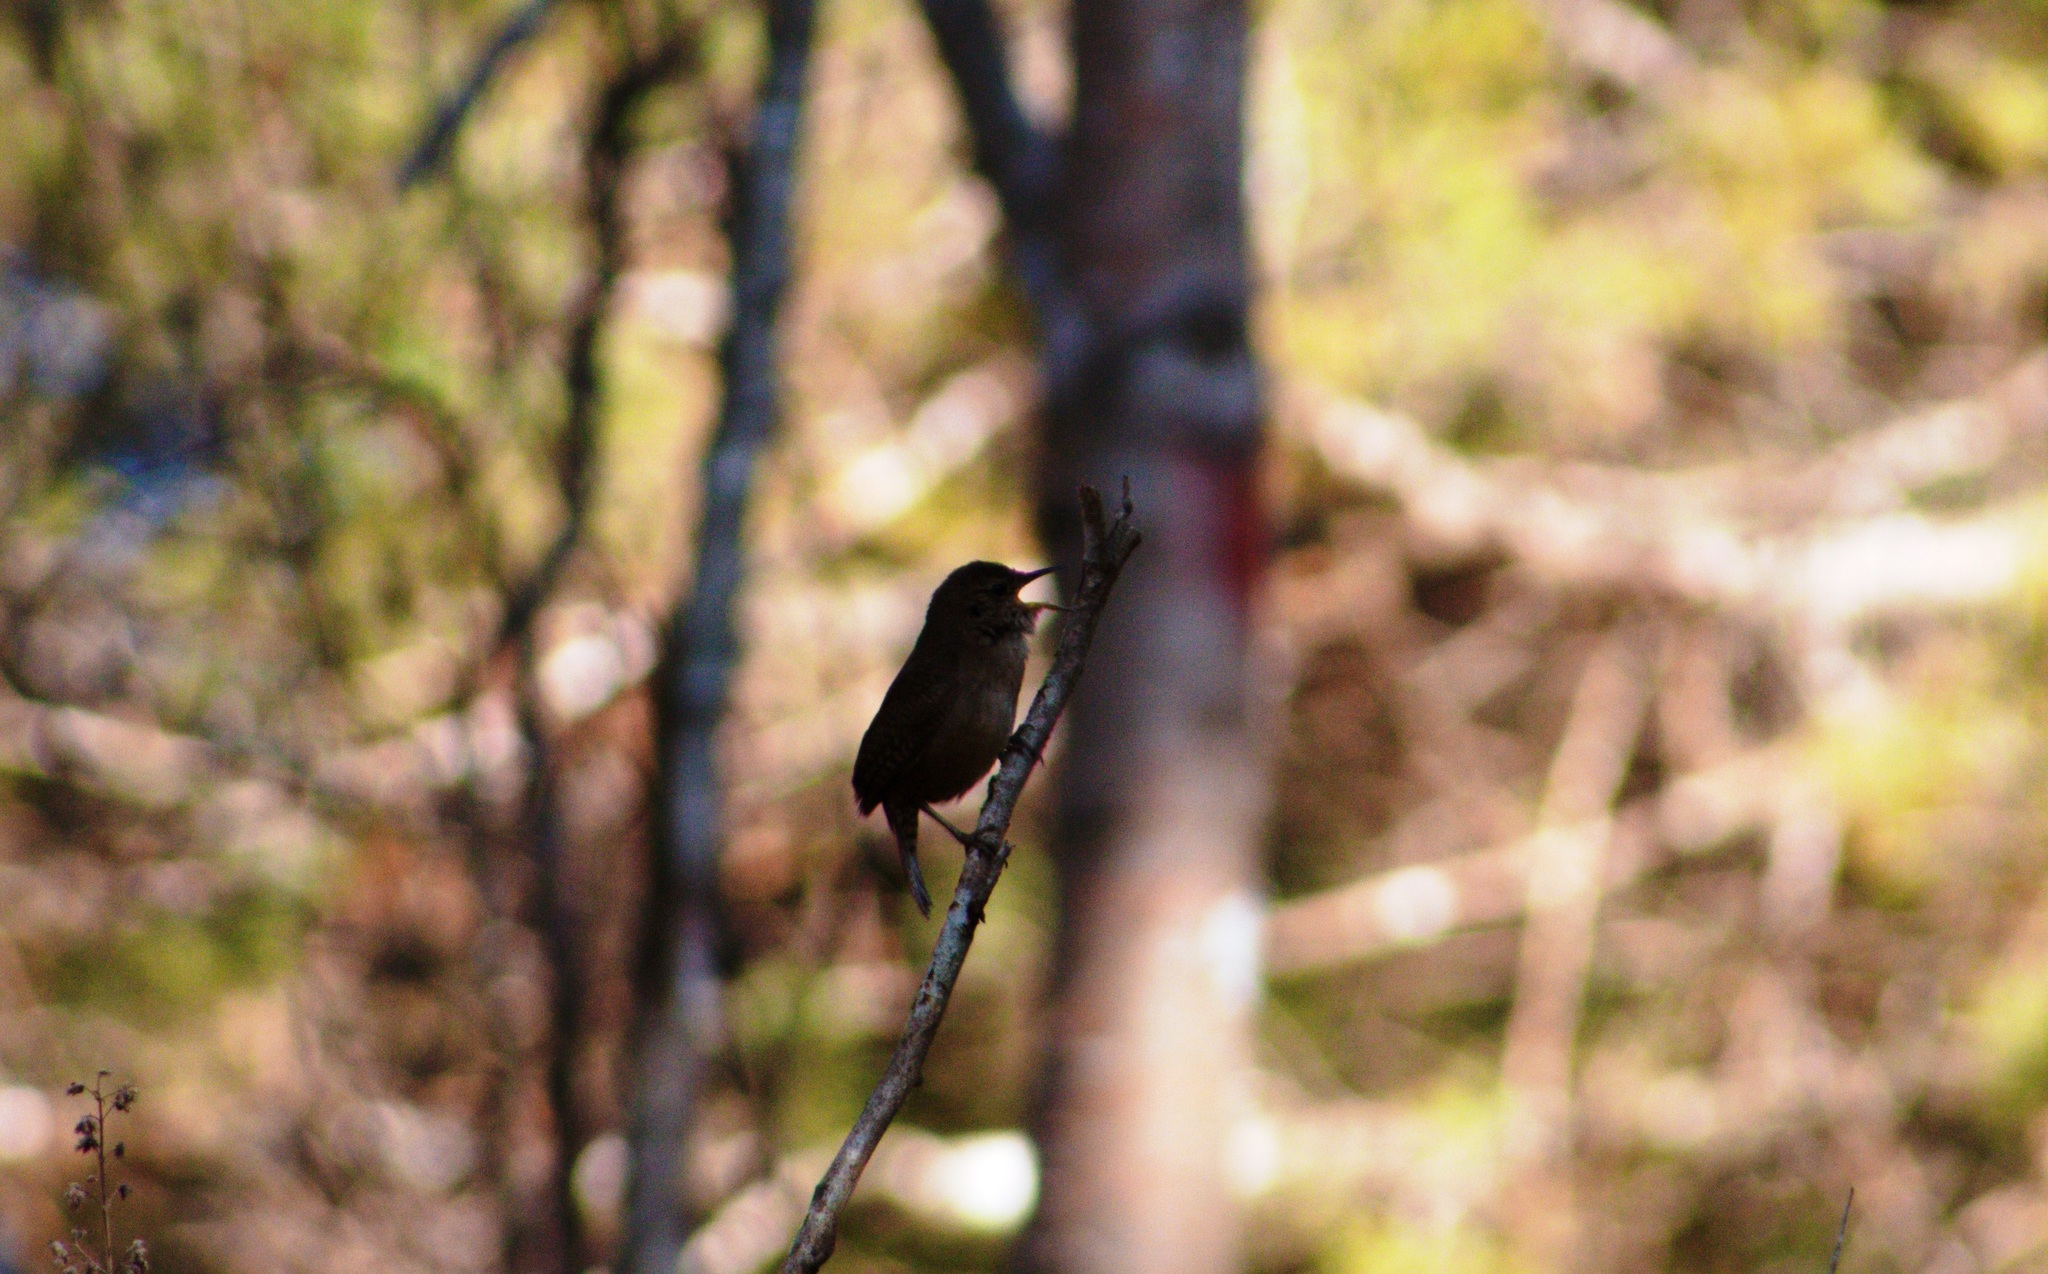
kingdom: Animalia
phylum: Chordata
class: Aves
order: Passeriformes
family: Troglodytidae
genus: Troglodytes
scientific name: Troglodytes aedon
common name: House wren
